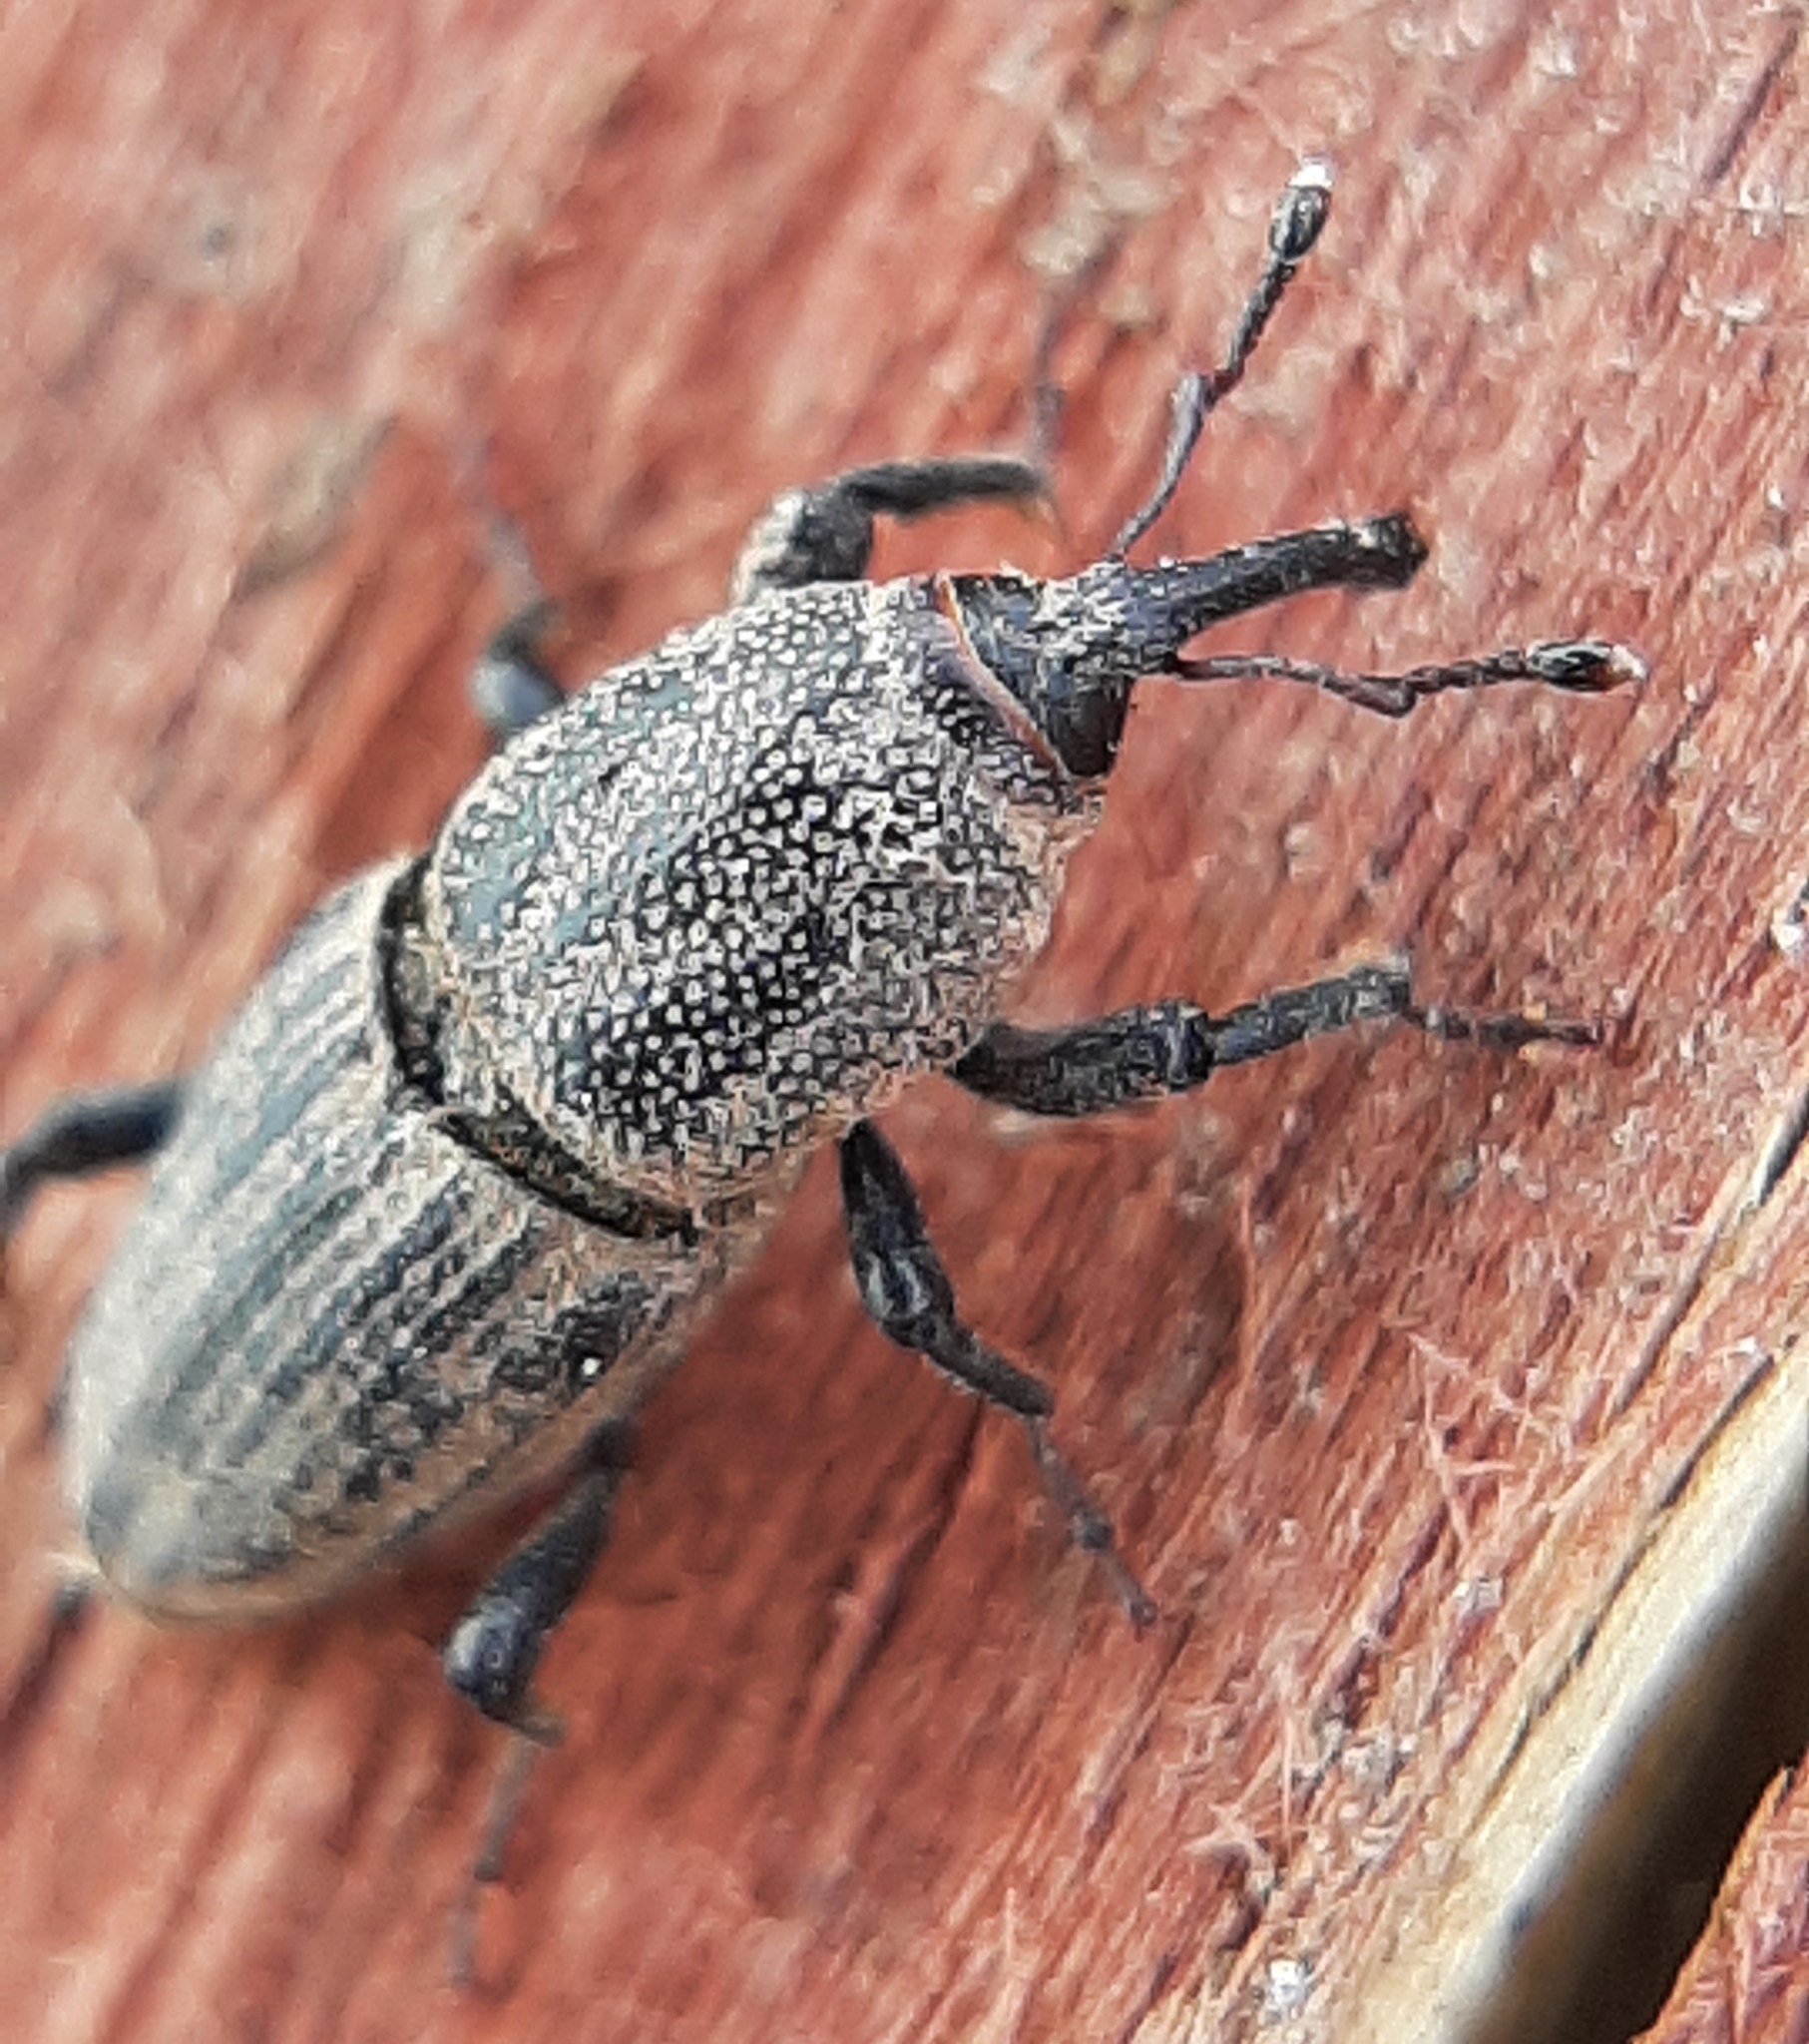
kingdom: Animalia
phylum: Arthropoda
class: Insecta
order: Coleoptera
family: Dryophthoridae
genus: Sphenophorus
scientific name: Sphenophorus interstitialis
